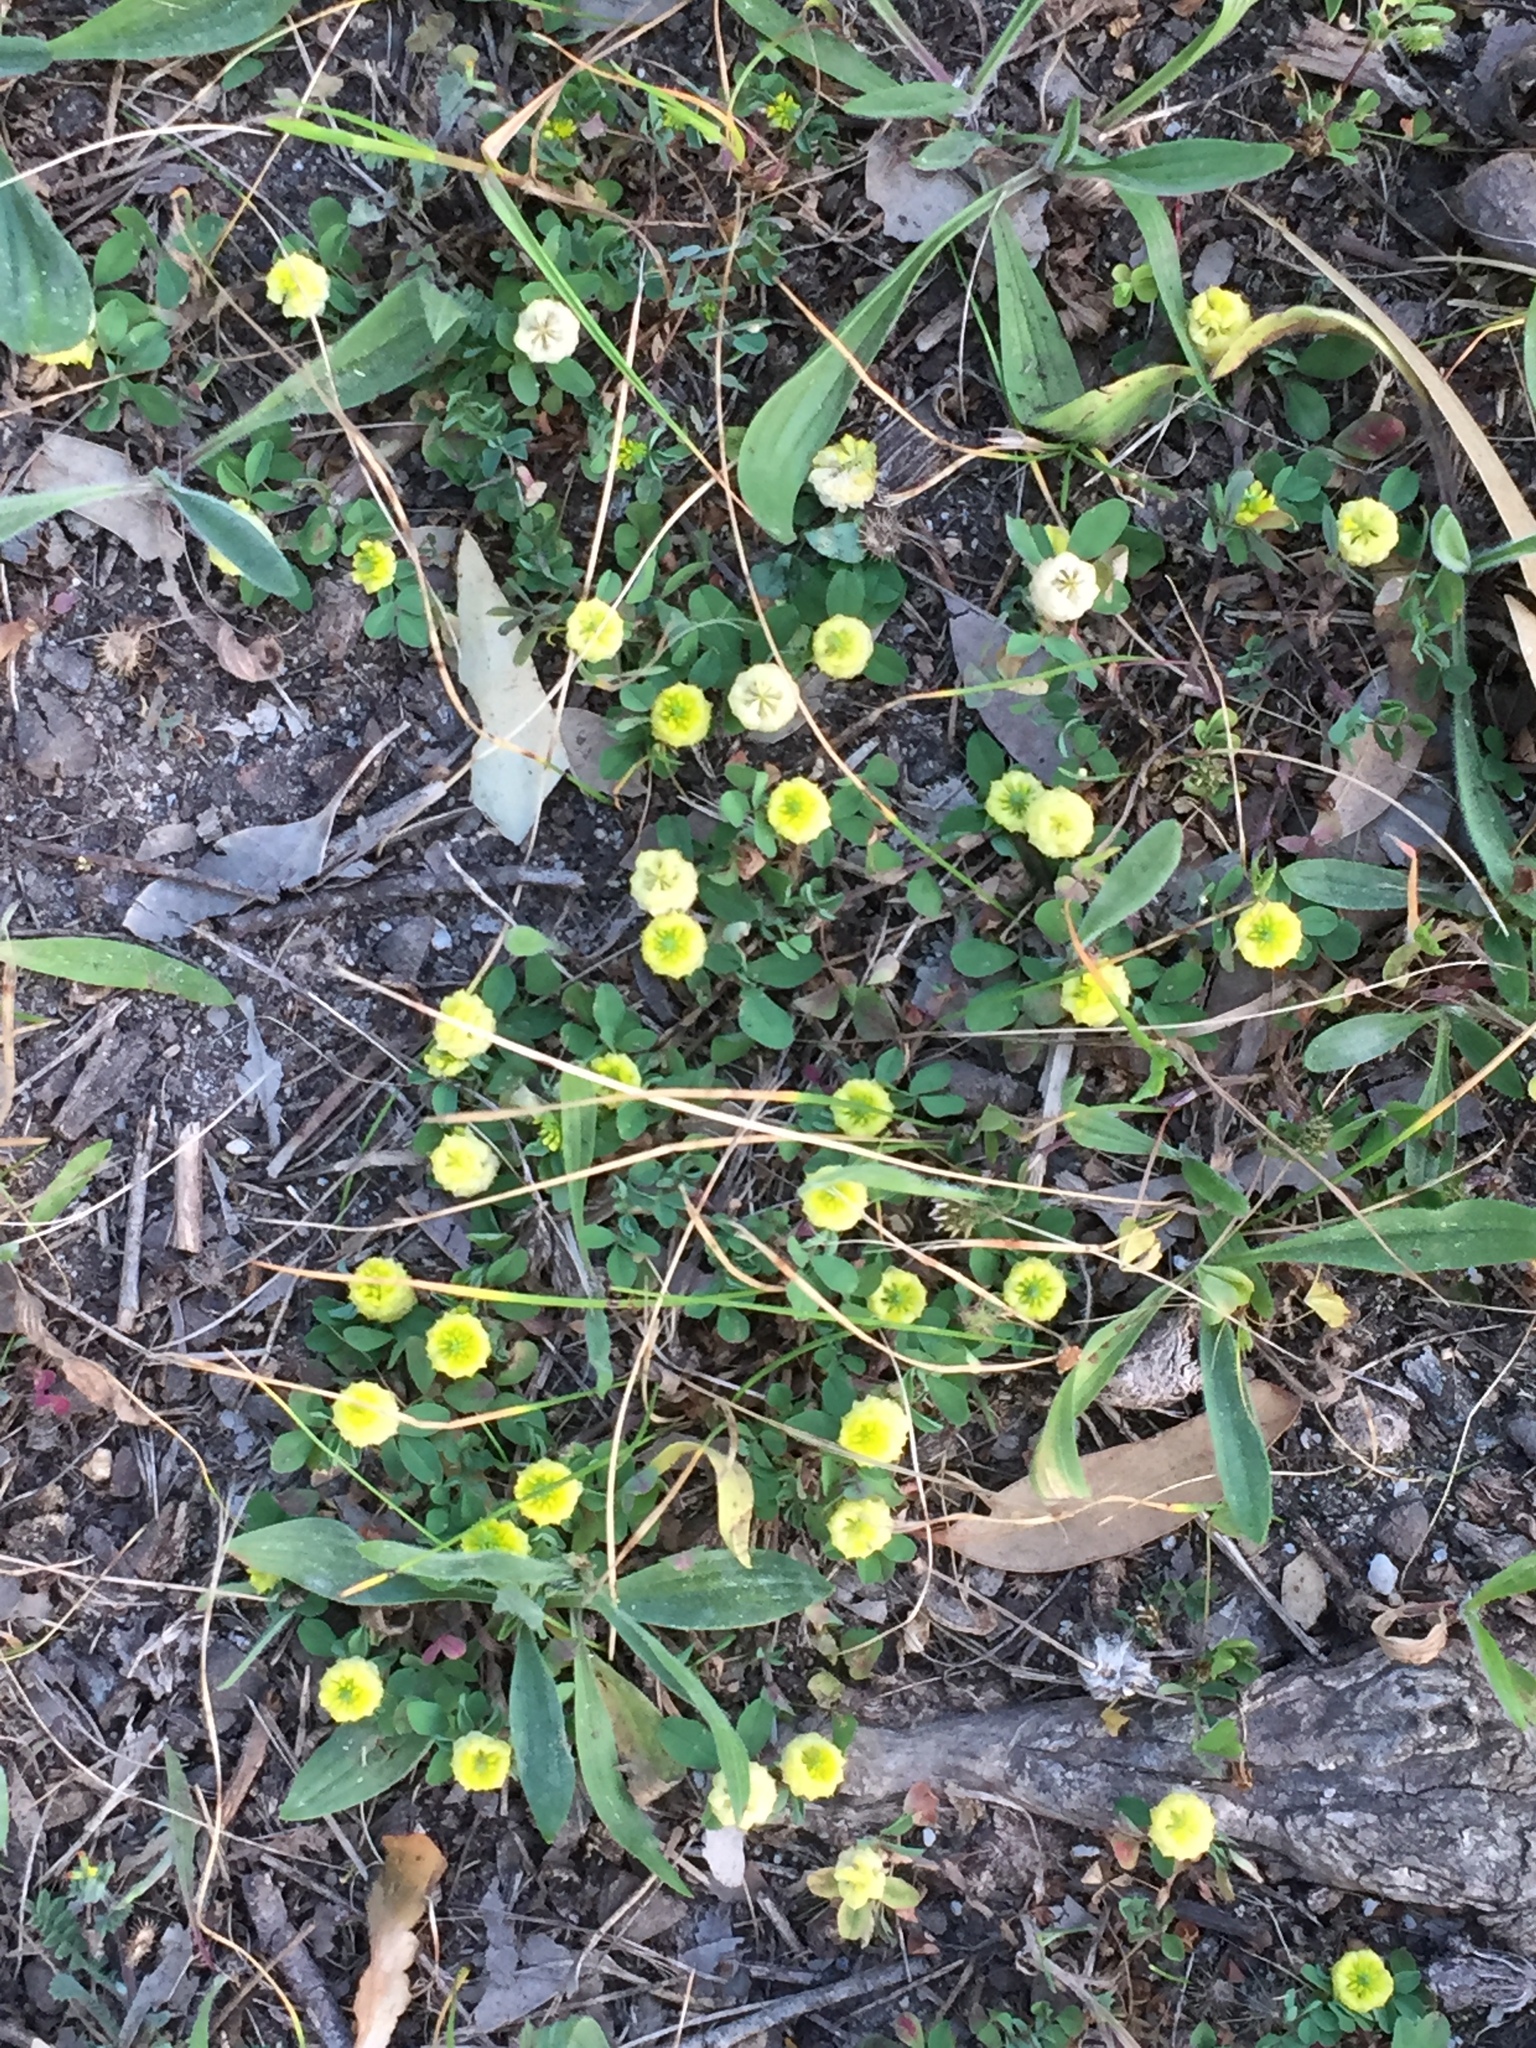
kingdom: Plantae
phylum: Tracheophyta
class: Magnoliopsida
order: Fabales
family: Fabaceae
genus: Trifolium
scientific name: Trifolium campestre
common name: Field clover
